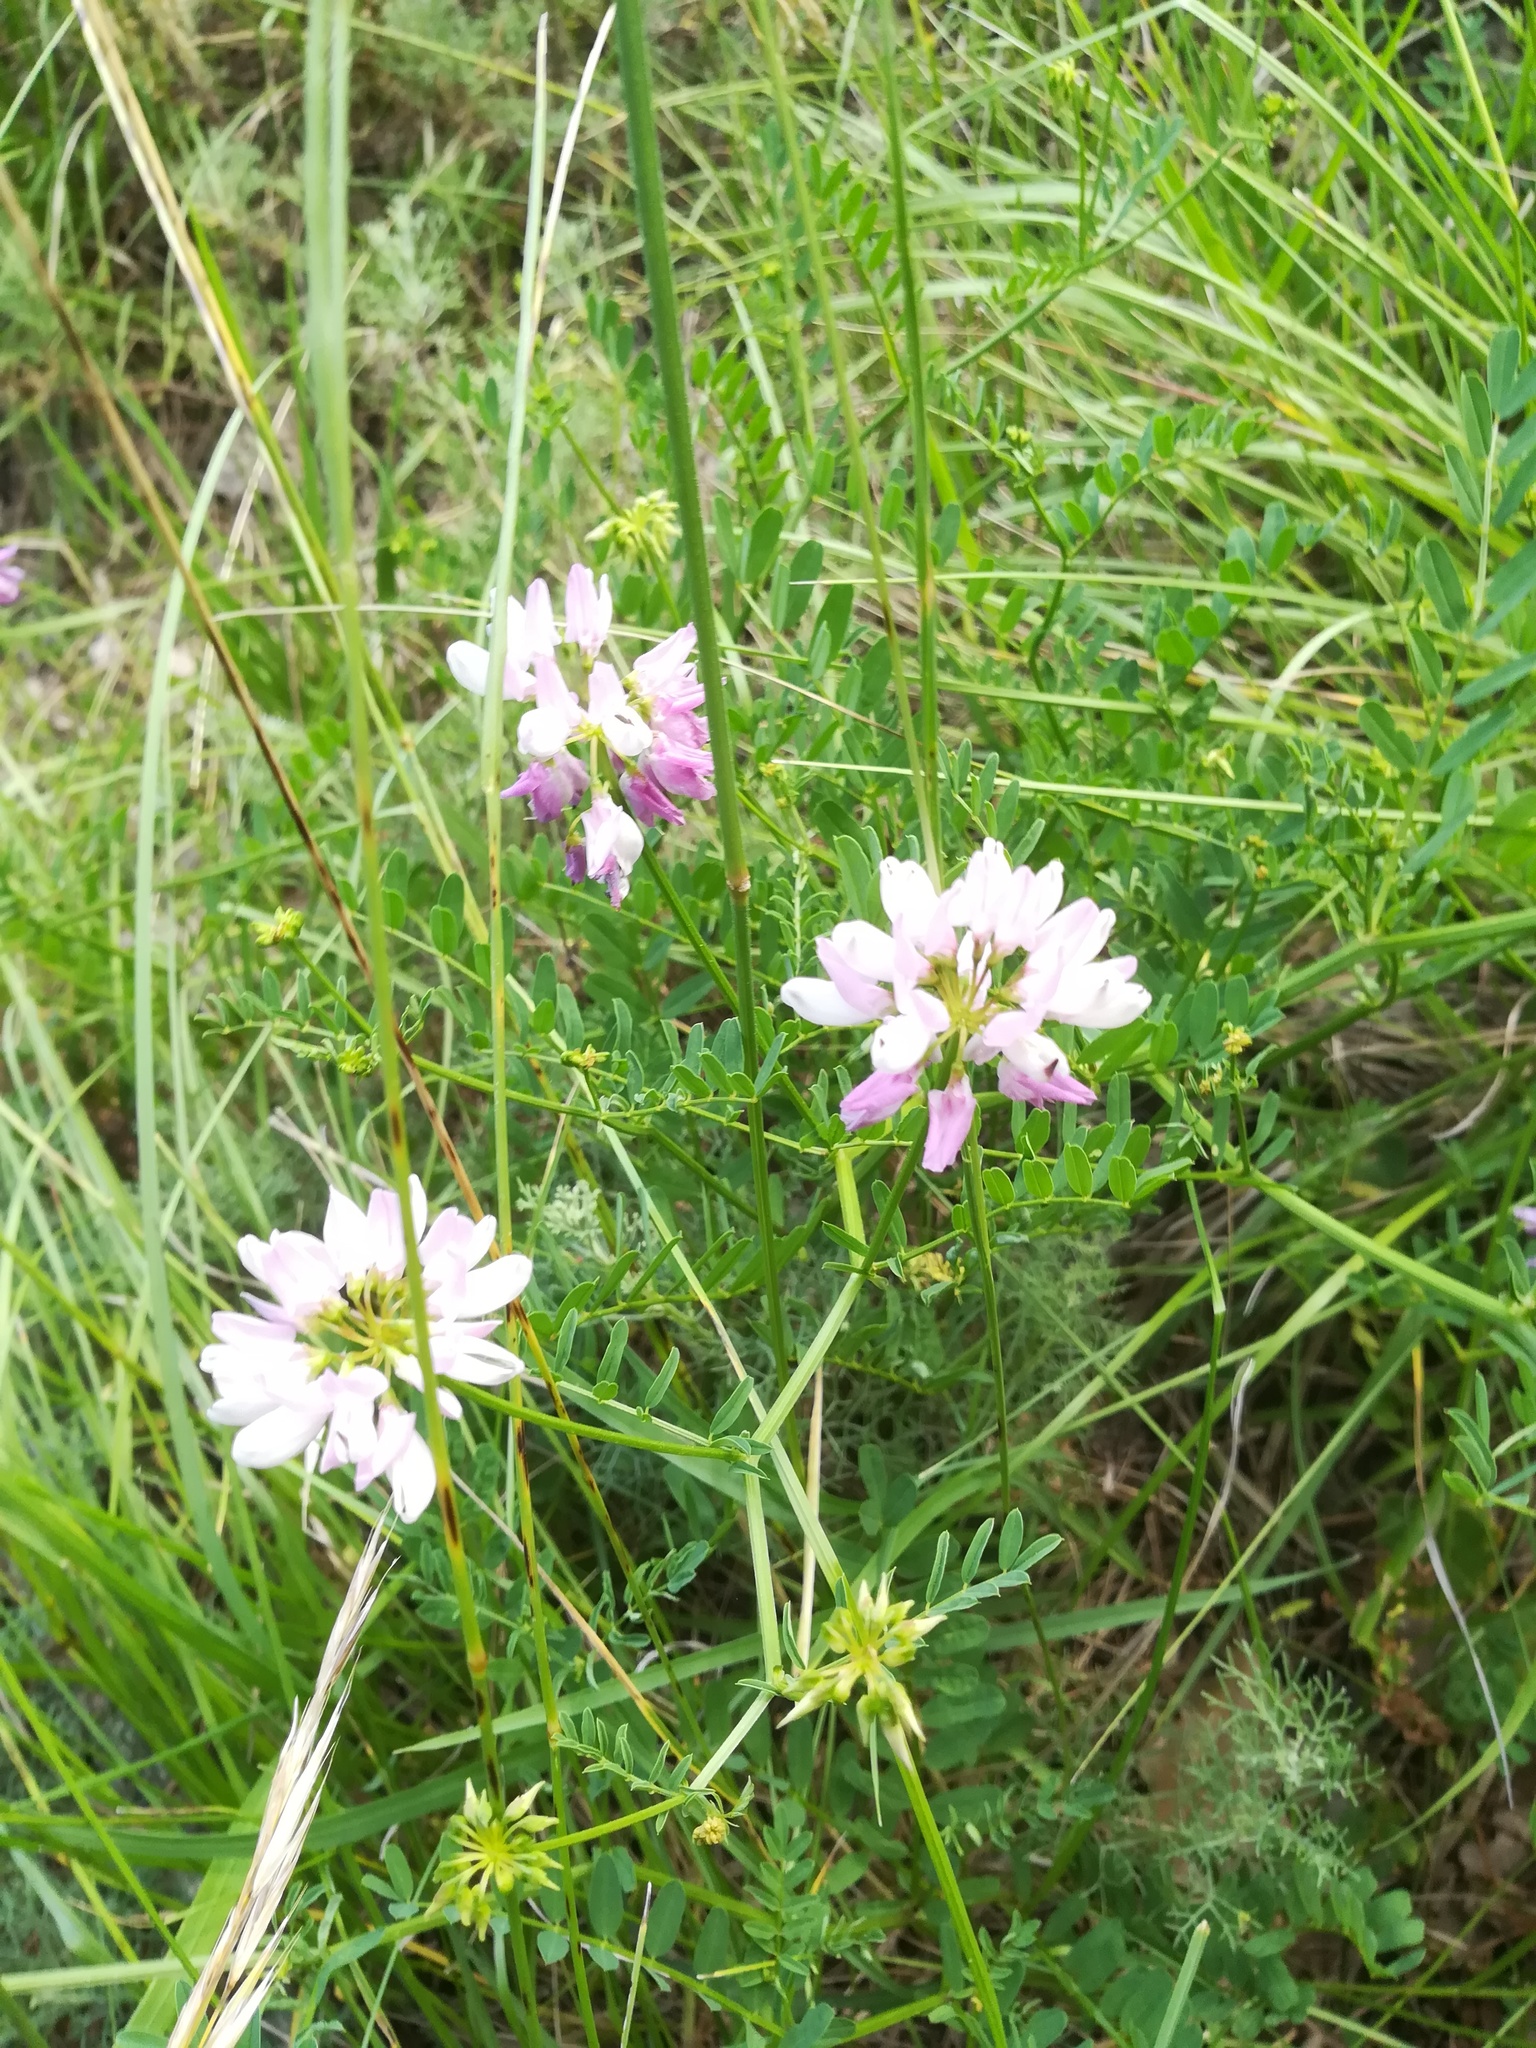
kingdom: Plantae
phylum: Tracheophyta
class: Magnoliopsida
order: Fabales
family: Fabaceae
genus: Coronilla
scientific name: Coronilla varia
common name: Crownvetch
